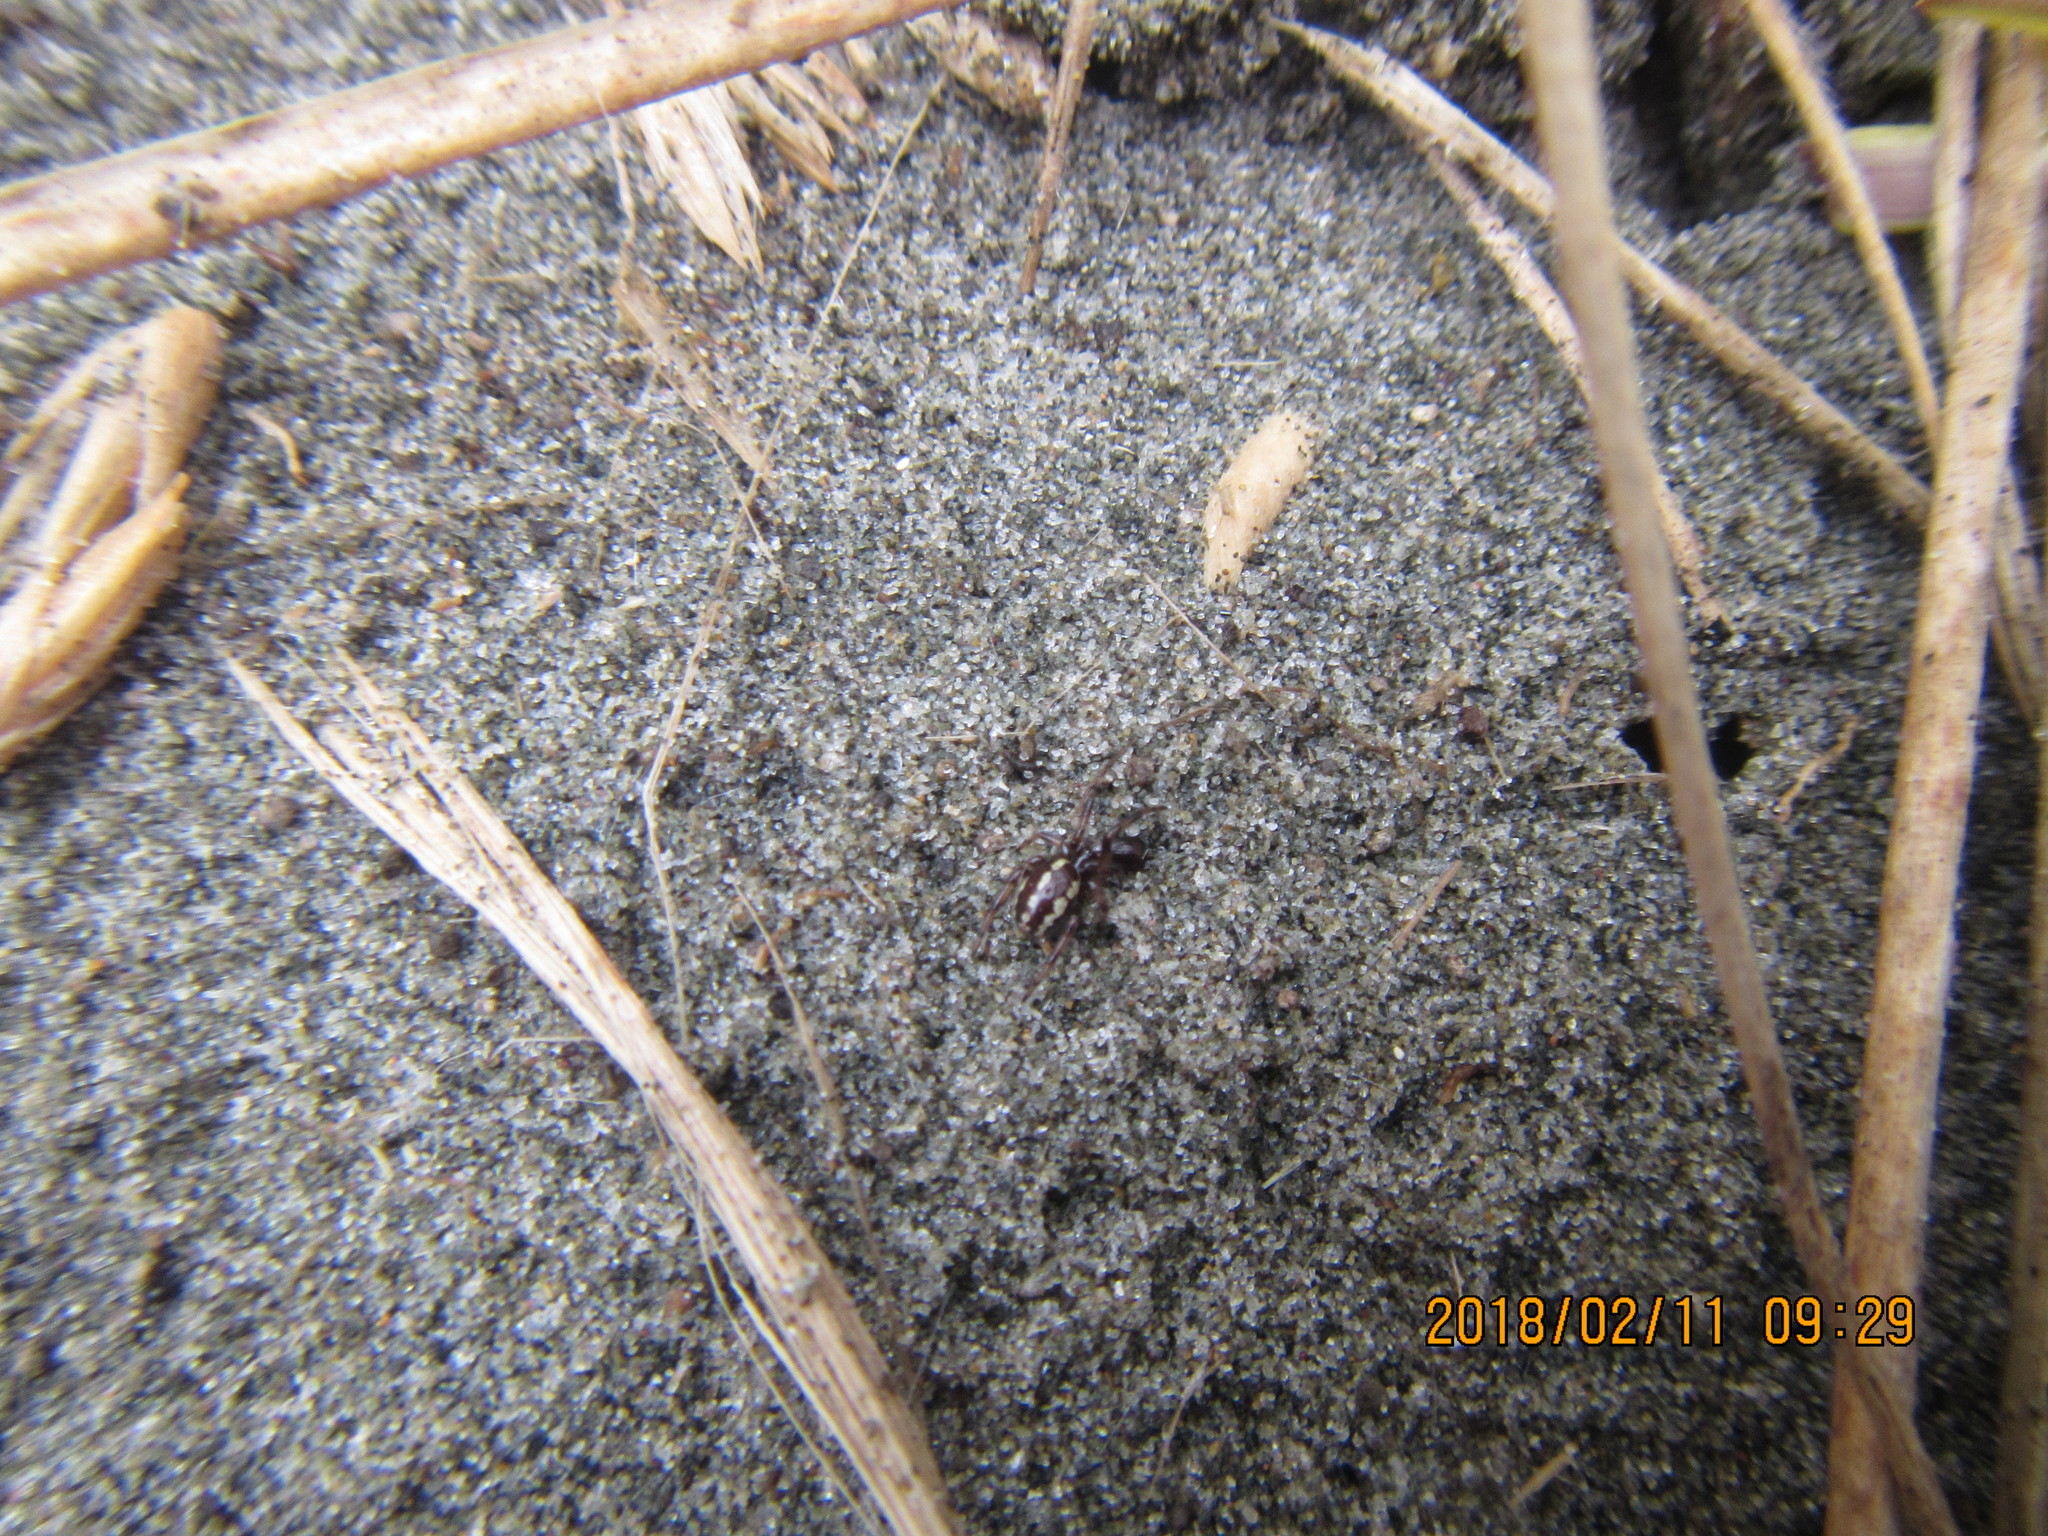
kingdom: Animalia
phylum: Arthropoda
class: Arachnida
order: Araneae
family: Theridiidae
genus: Steatoda
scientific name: Steatoda lepida
